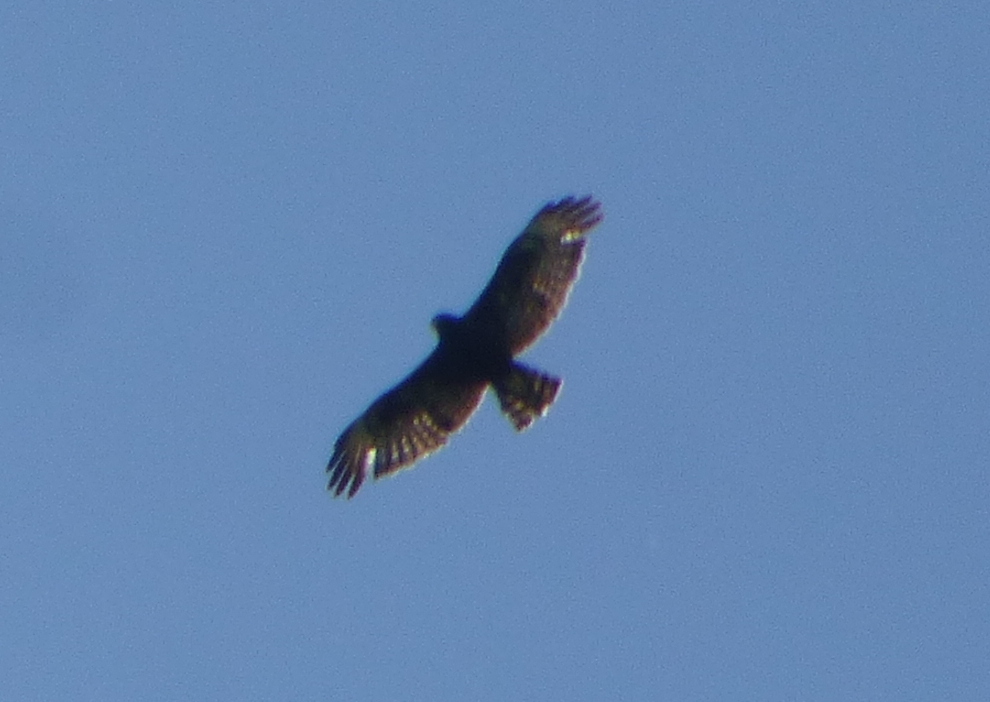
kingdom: Animalia
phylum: Chordata
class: Aves
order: Accipitriformes
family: Accipitridae
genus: Buteo
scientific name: Buteo brachyurus
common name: Short-tailed hawk
